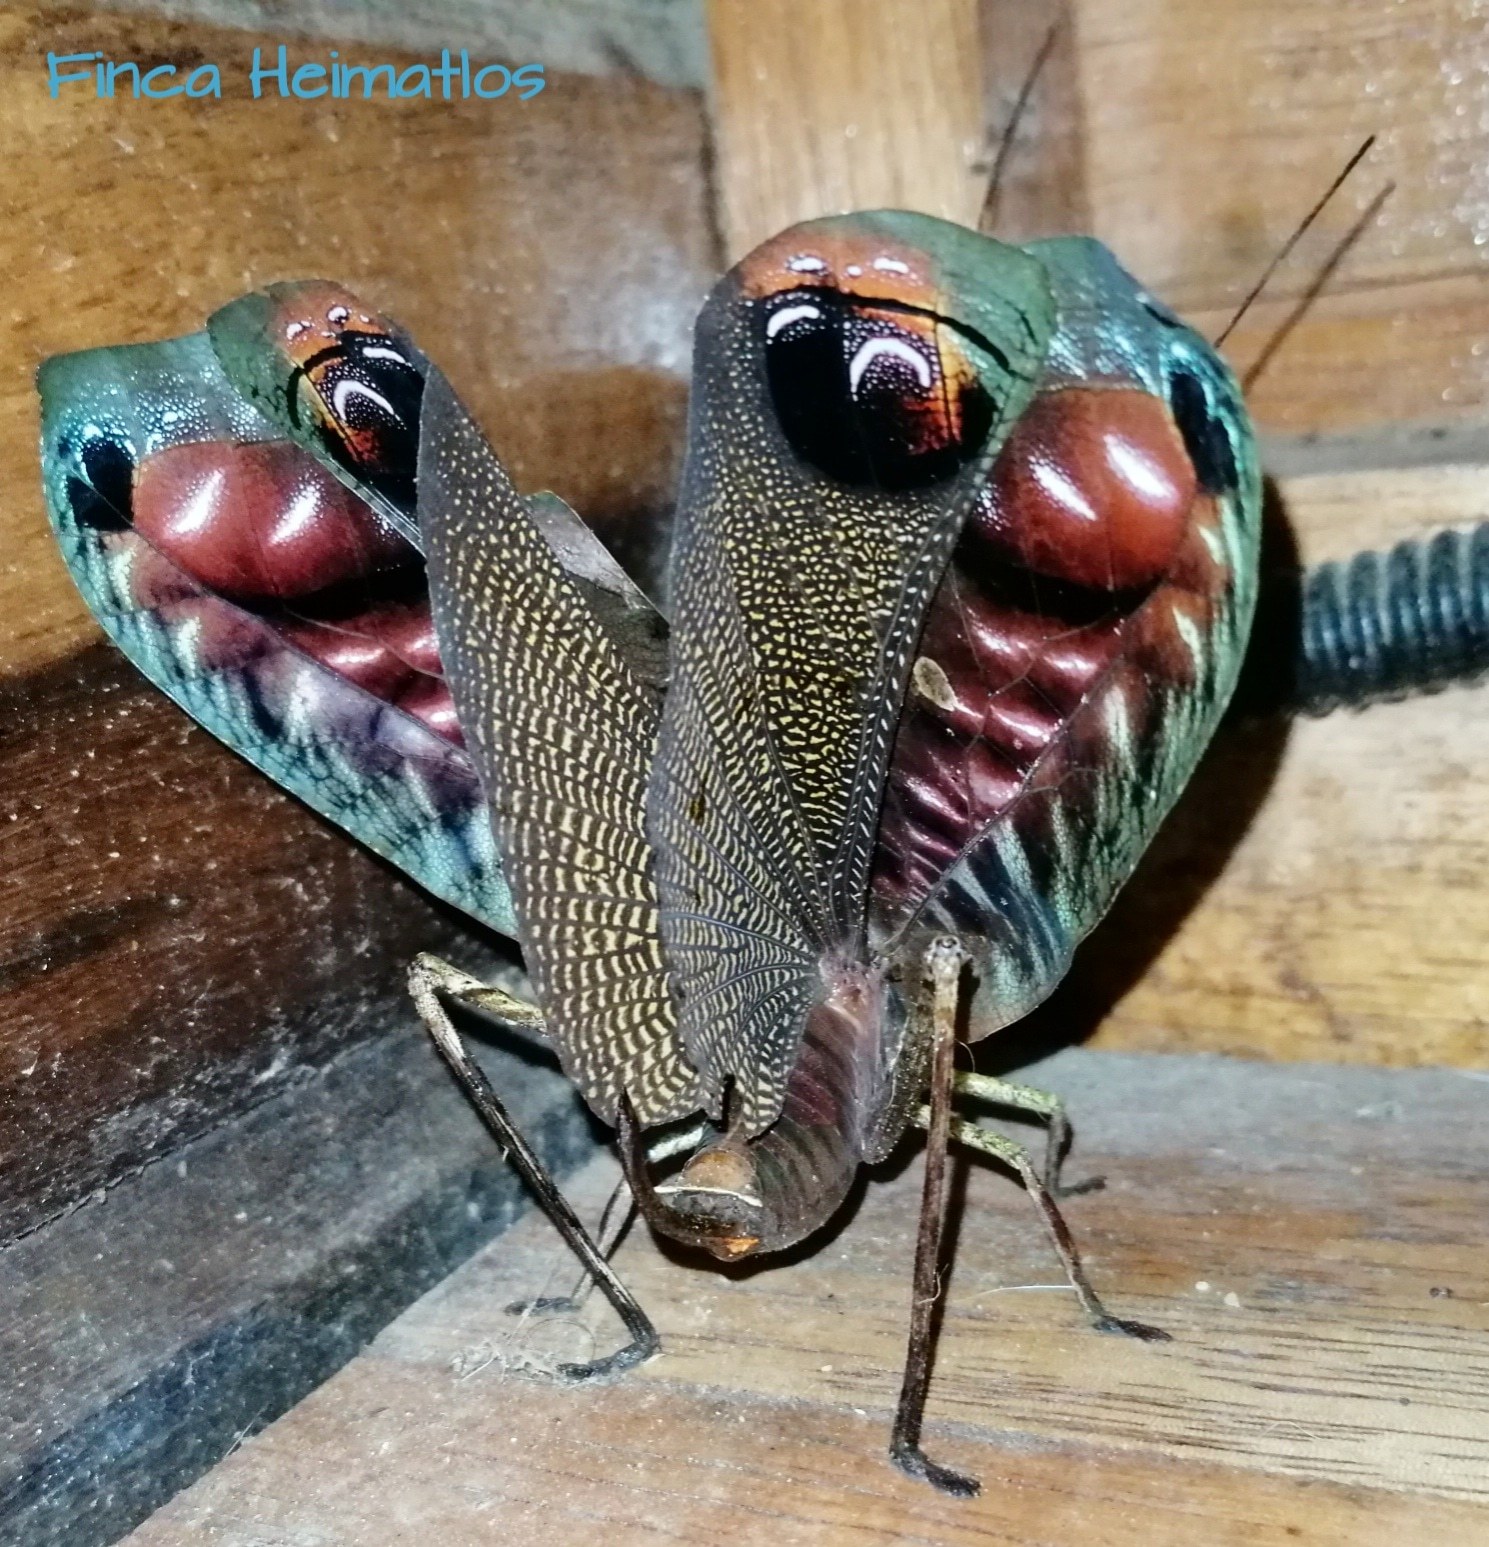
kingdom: Animalia
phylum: Arthropoda
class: Insecta
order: Orthoptera
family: Tettigoniidae
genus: Pterochroza
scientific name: Pterochroza ocellata
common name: Peacock katydid
